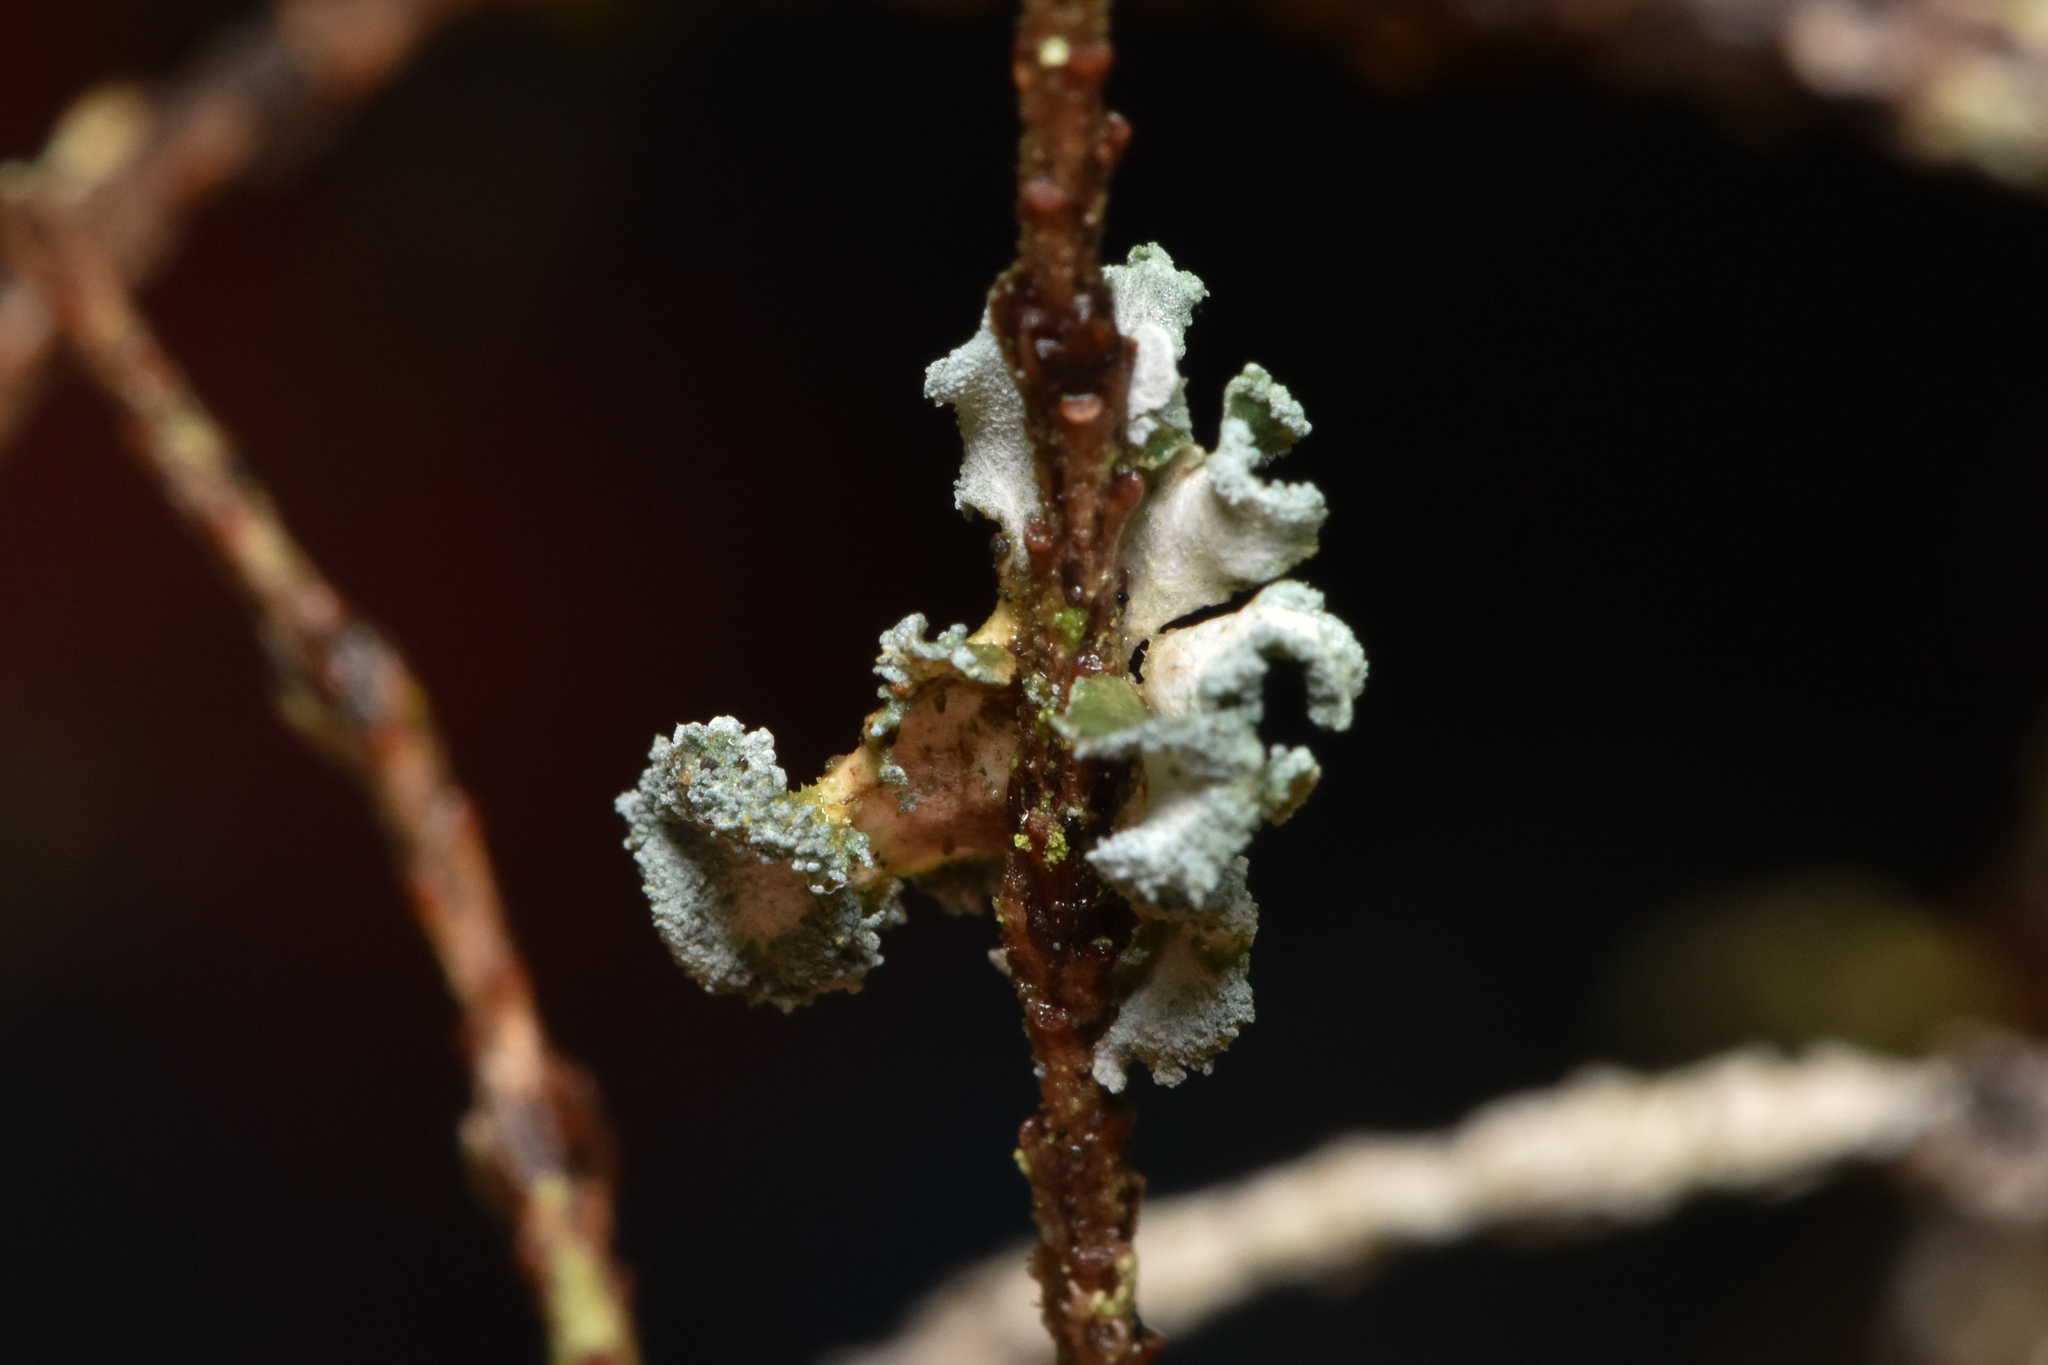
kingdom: Fungi
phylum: Ascomycota
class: Lecanoromycetes
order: Peltigerales
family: Pannariaceae
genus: Erioderma
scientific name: Erioderma sorediatum
